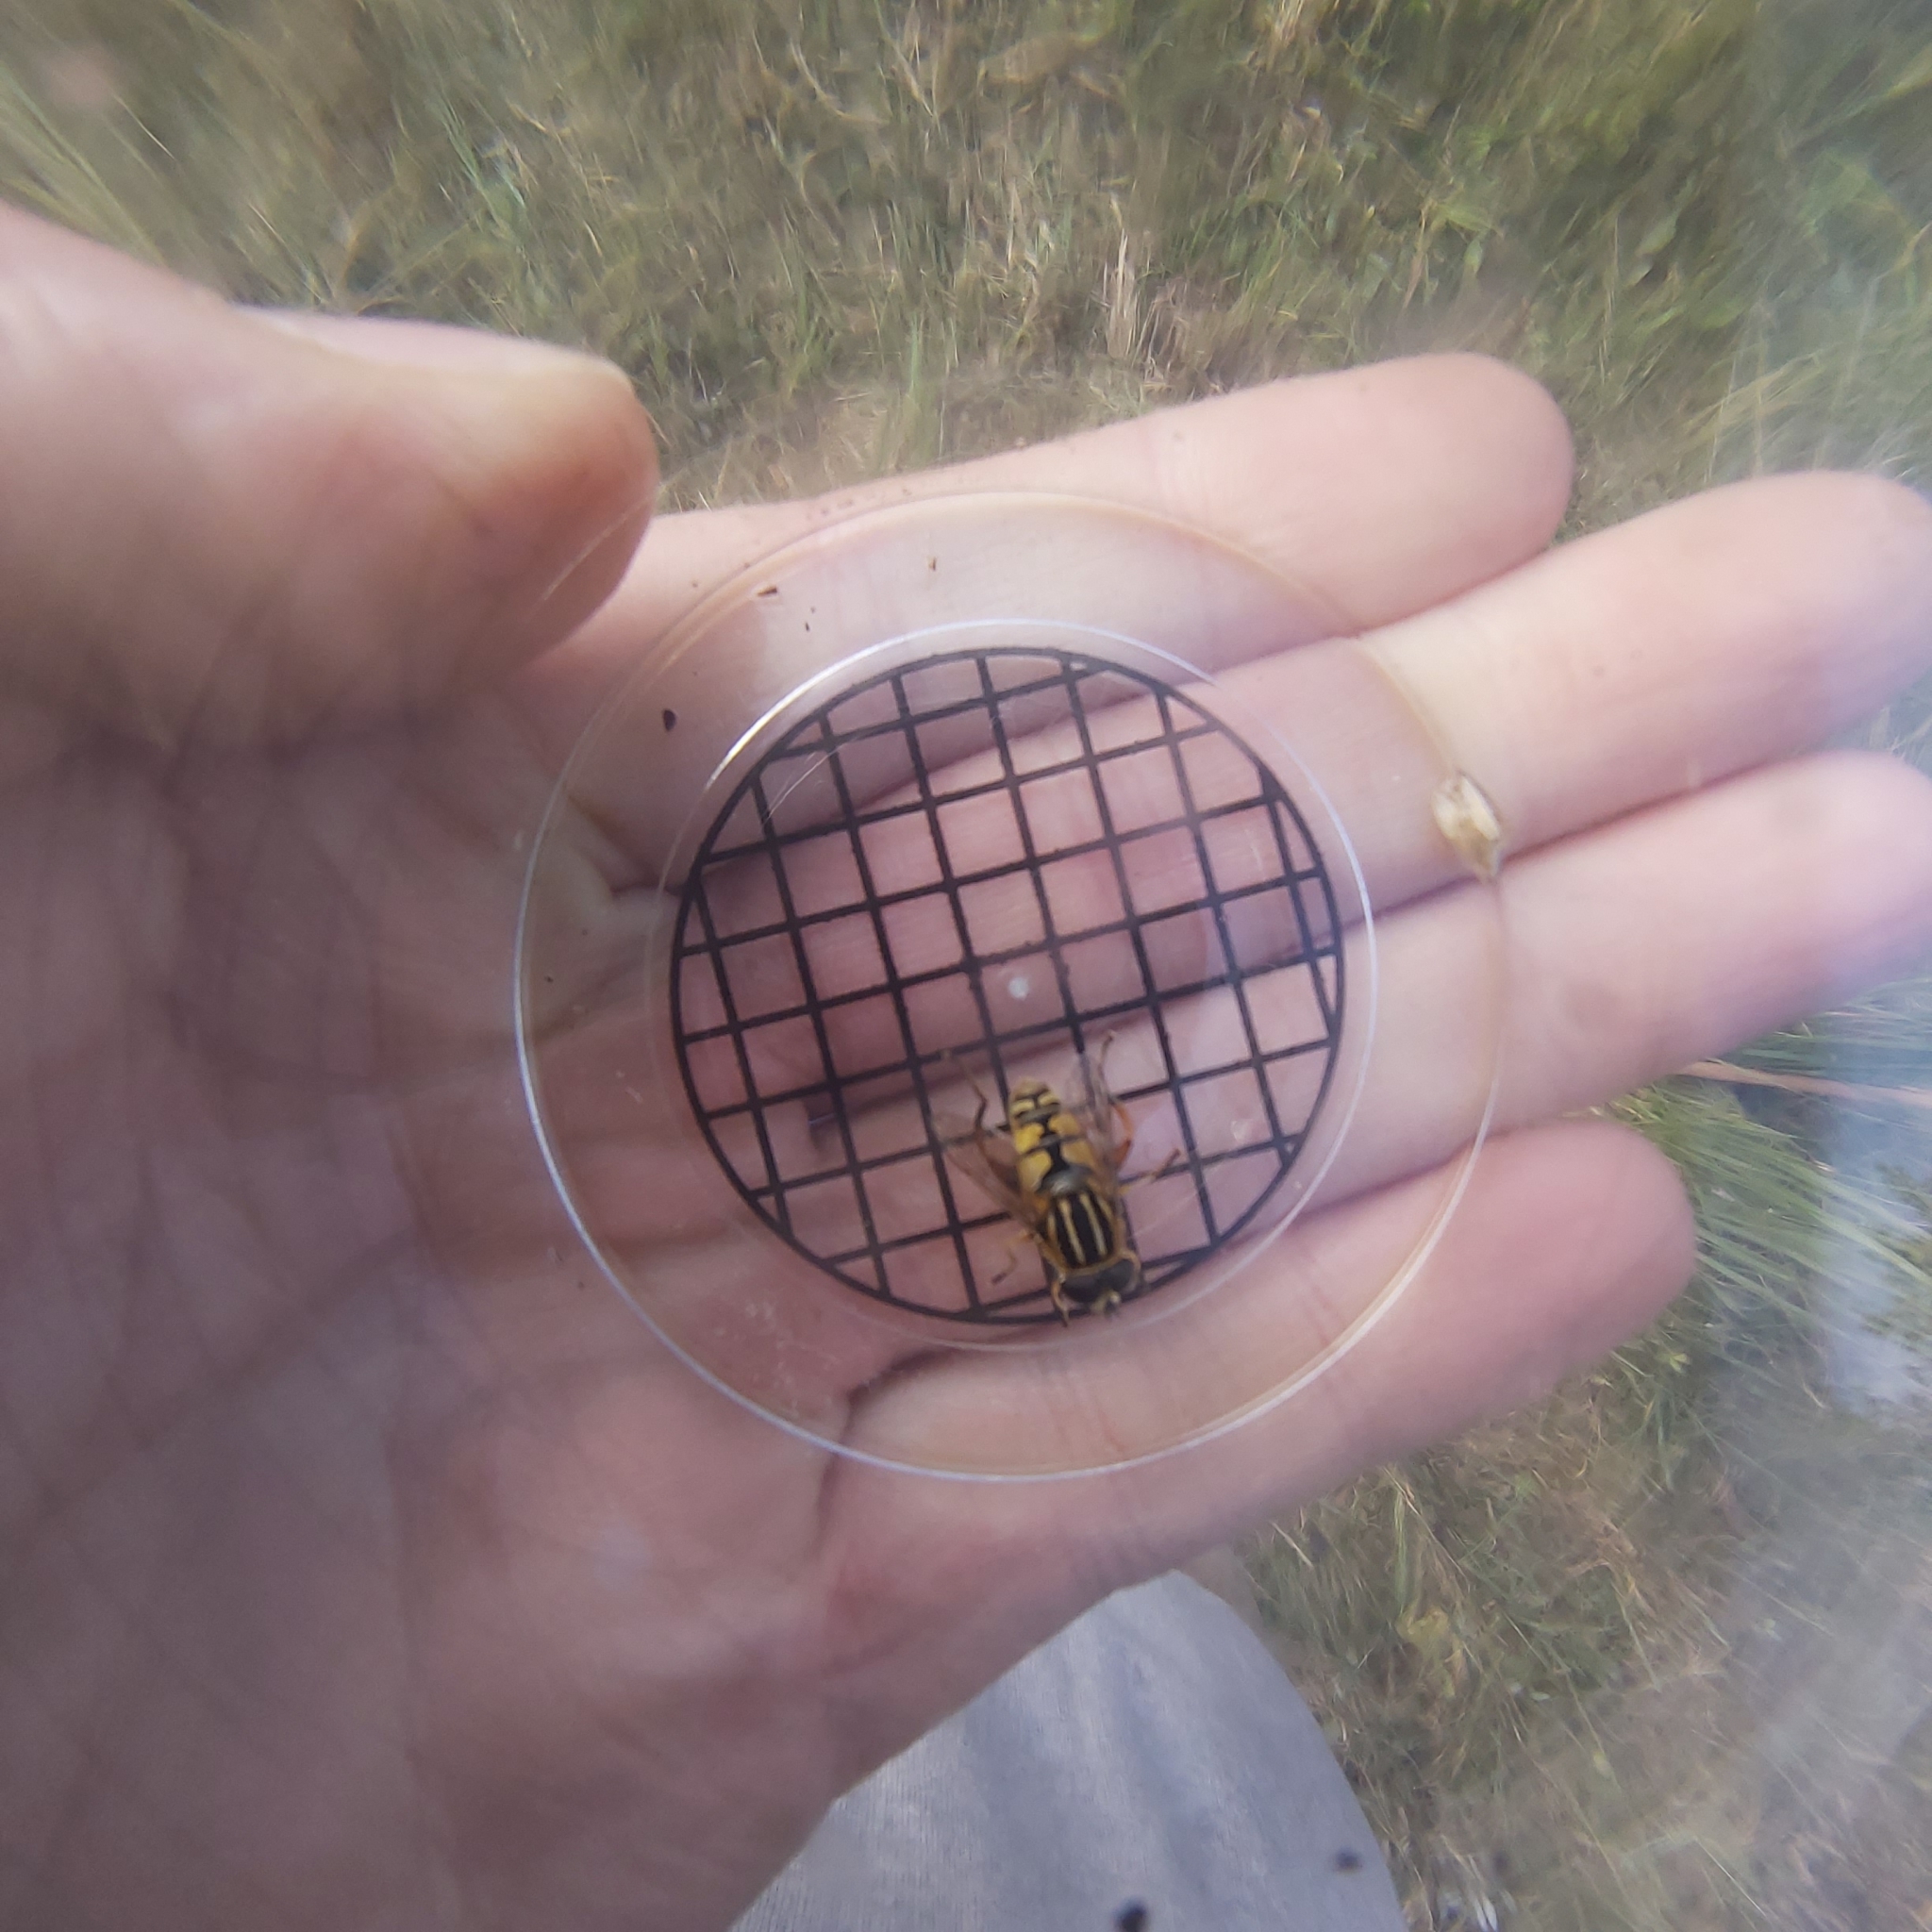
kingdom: Animalia
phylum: Arthropoda
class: Insecta
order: Diptera
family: Syrphidae
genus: Helophilus
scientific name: Helophilus pendulus
